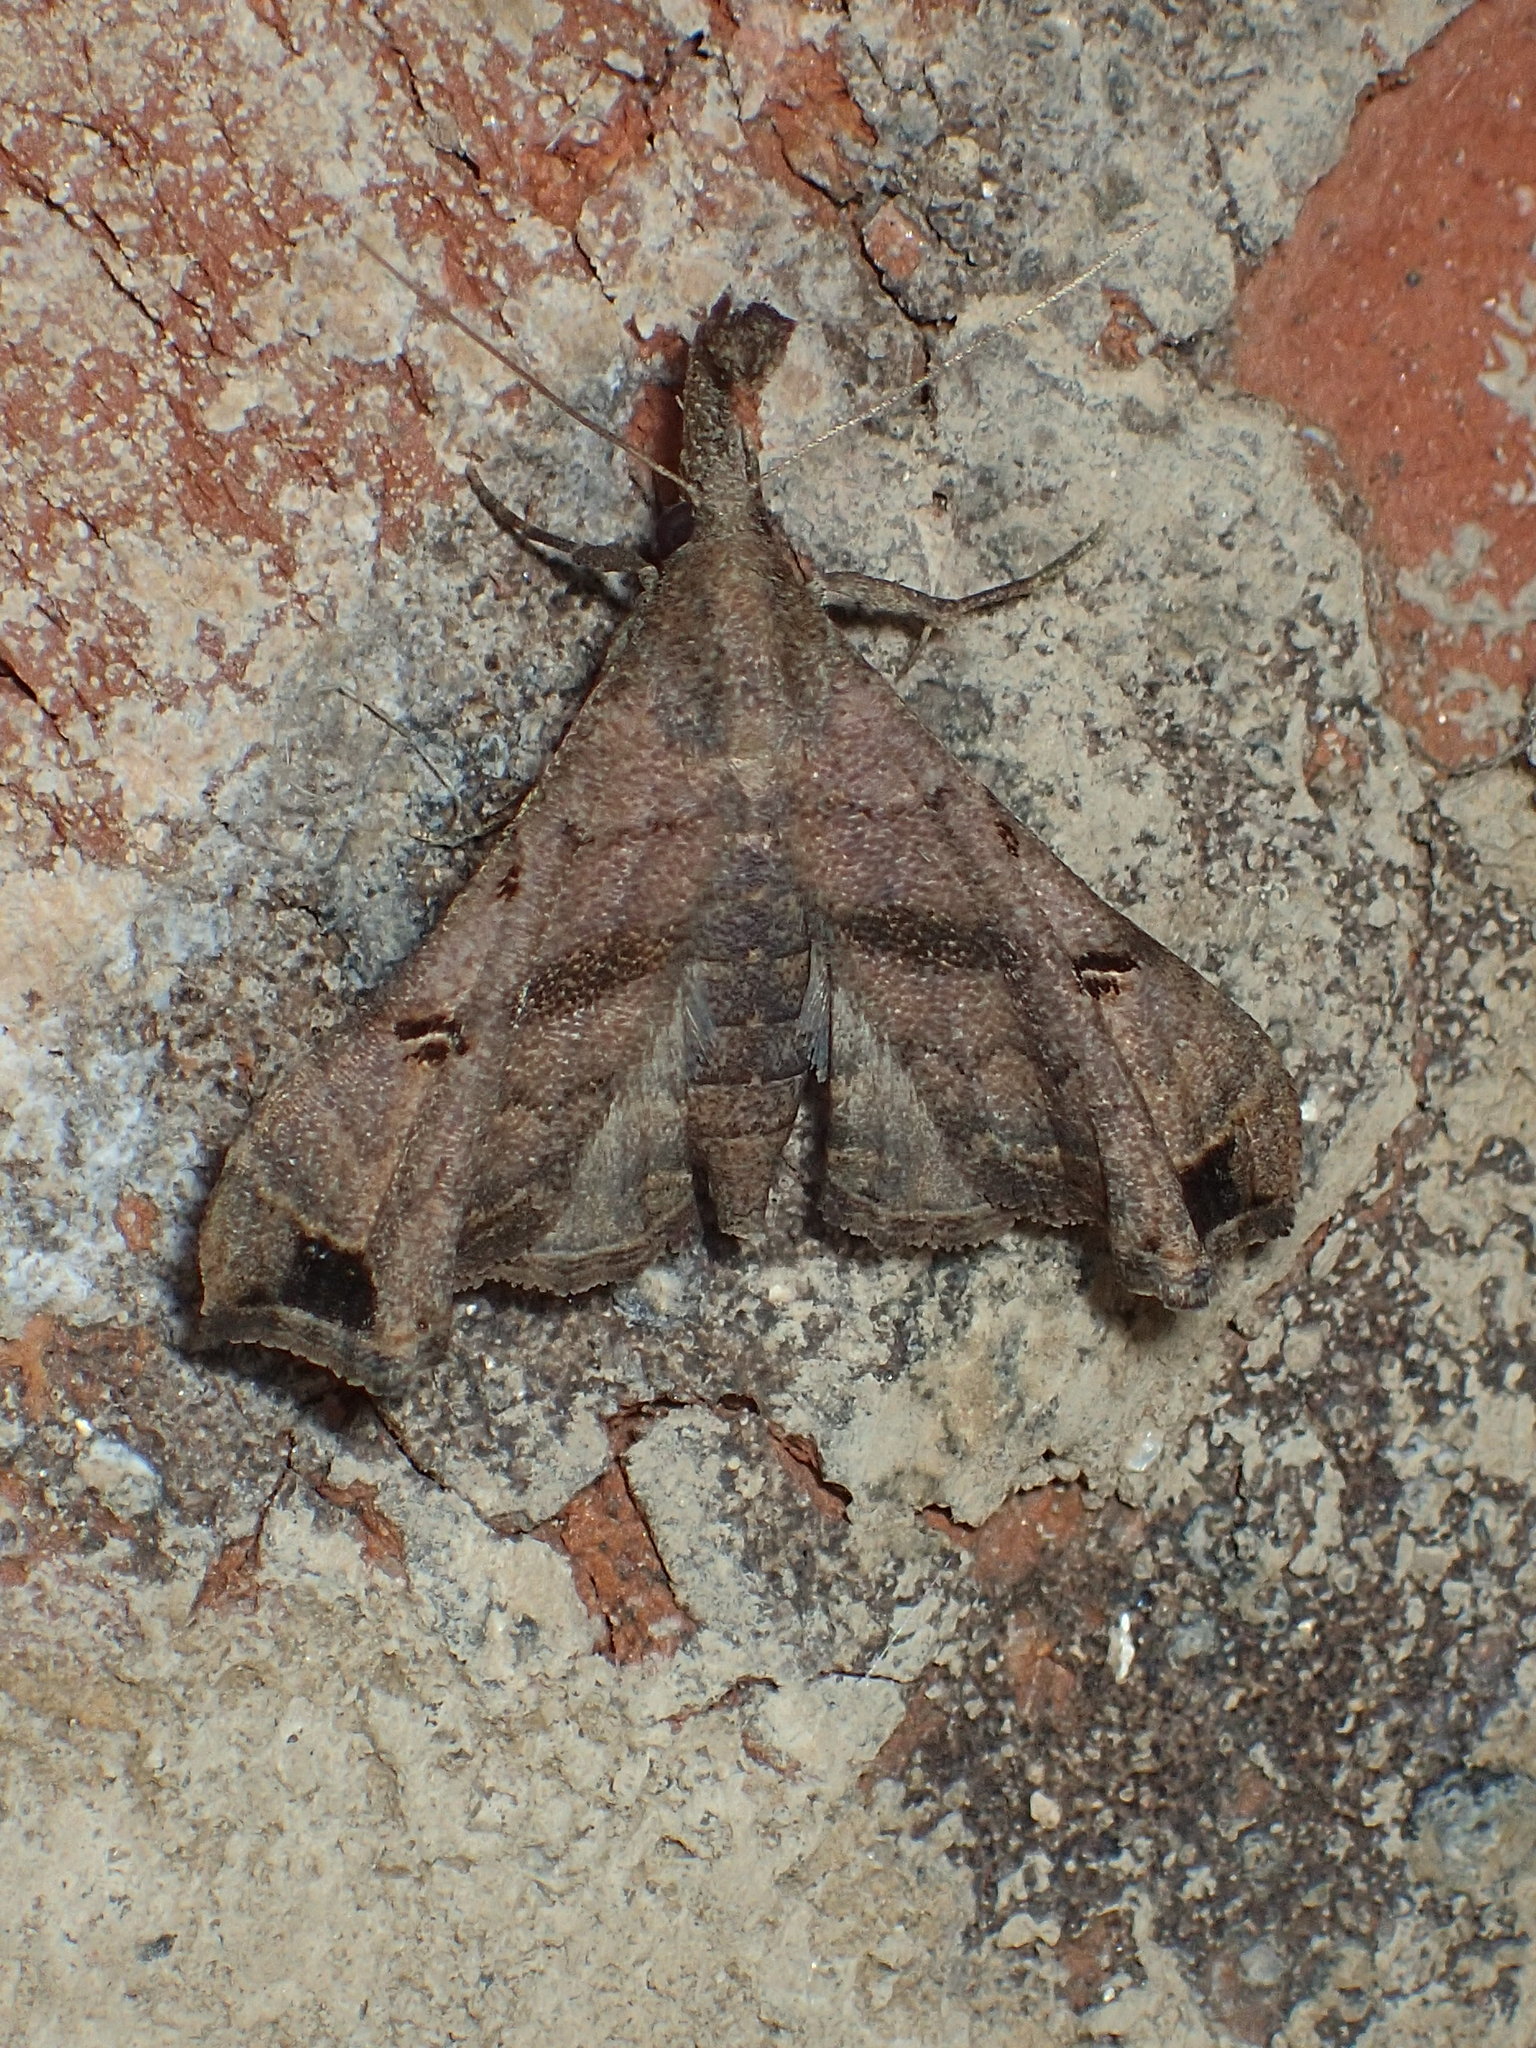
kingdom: Animalia
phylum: Arthropoda
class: Insecta
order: Lepidoptera
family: Erebidae
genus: Palthis
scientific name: Palthis asopialis
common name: Faint-spotted palthis moth
